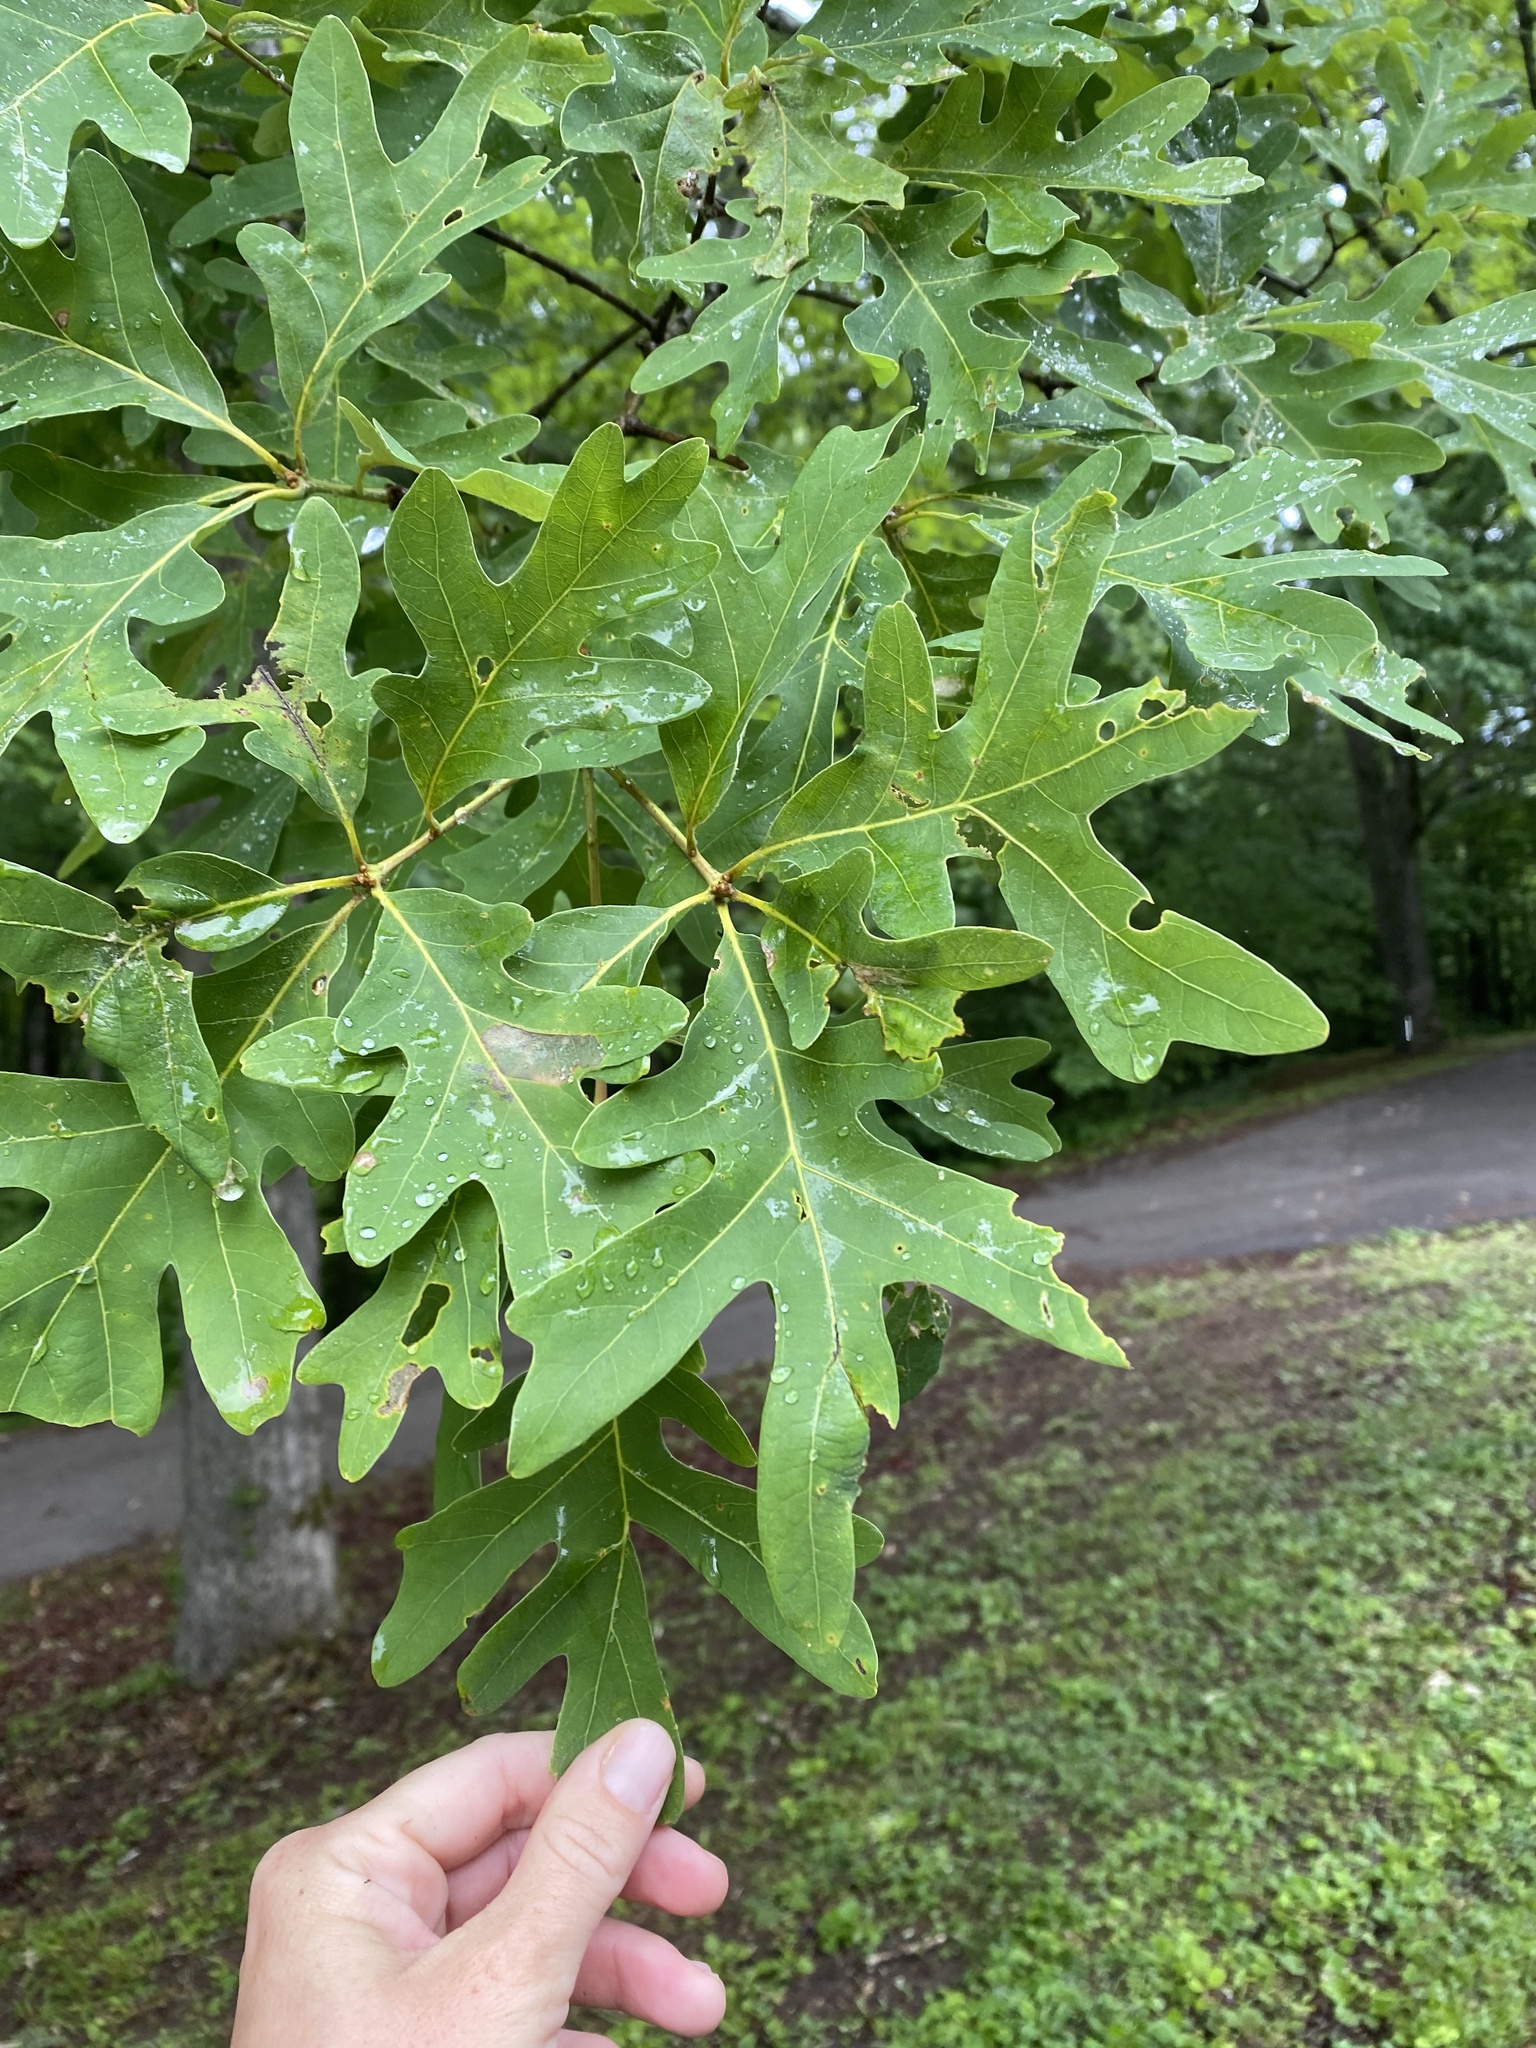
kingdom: Plantae
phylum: Tracheophyta
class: Magnoliopsida
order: Fagales
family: Fagaceae
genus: Quercus
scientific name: Quercus alba
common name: White oak
